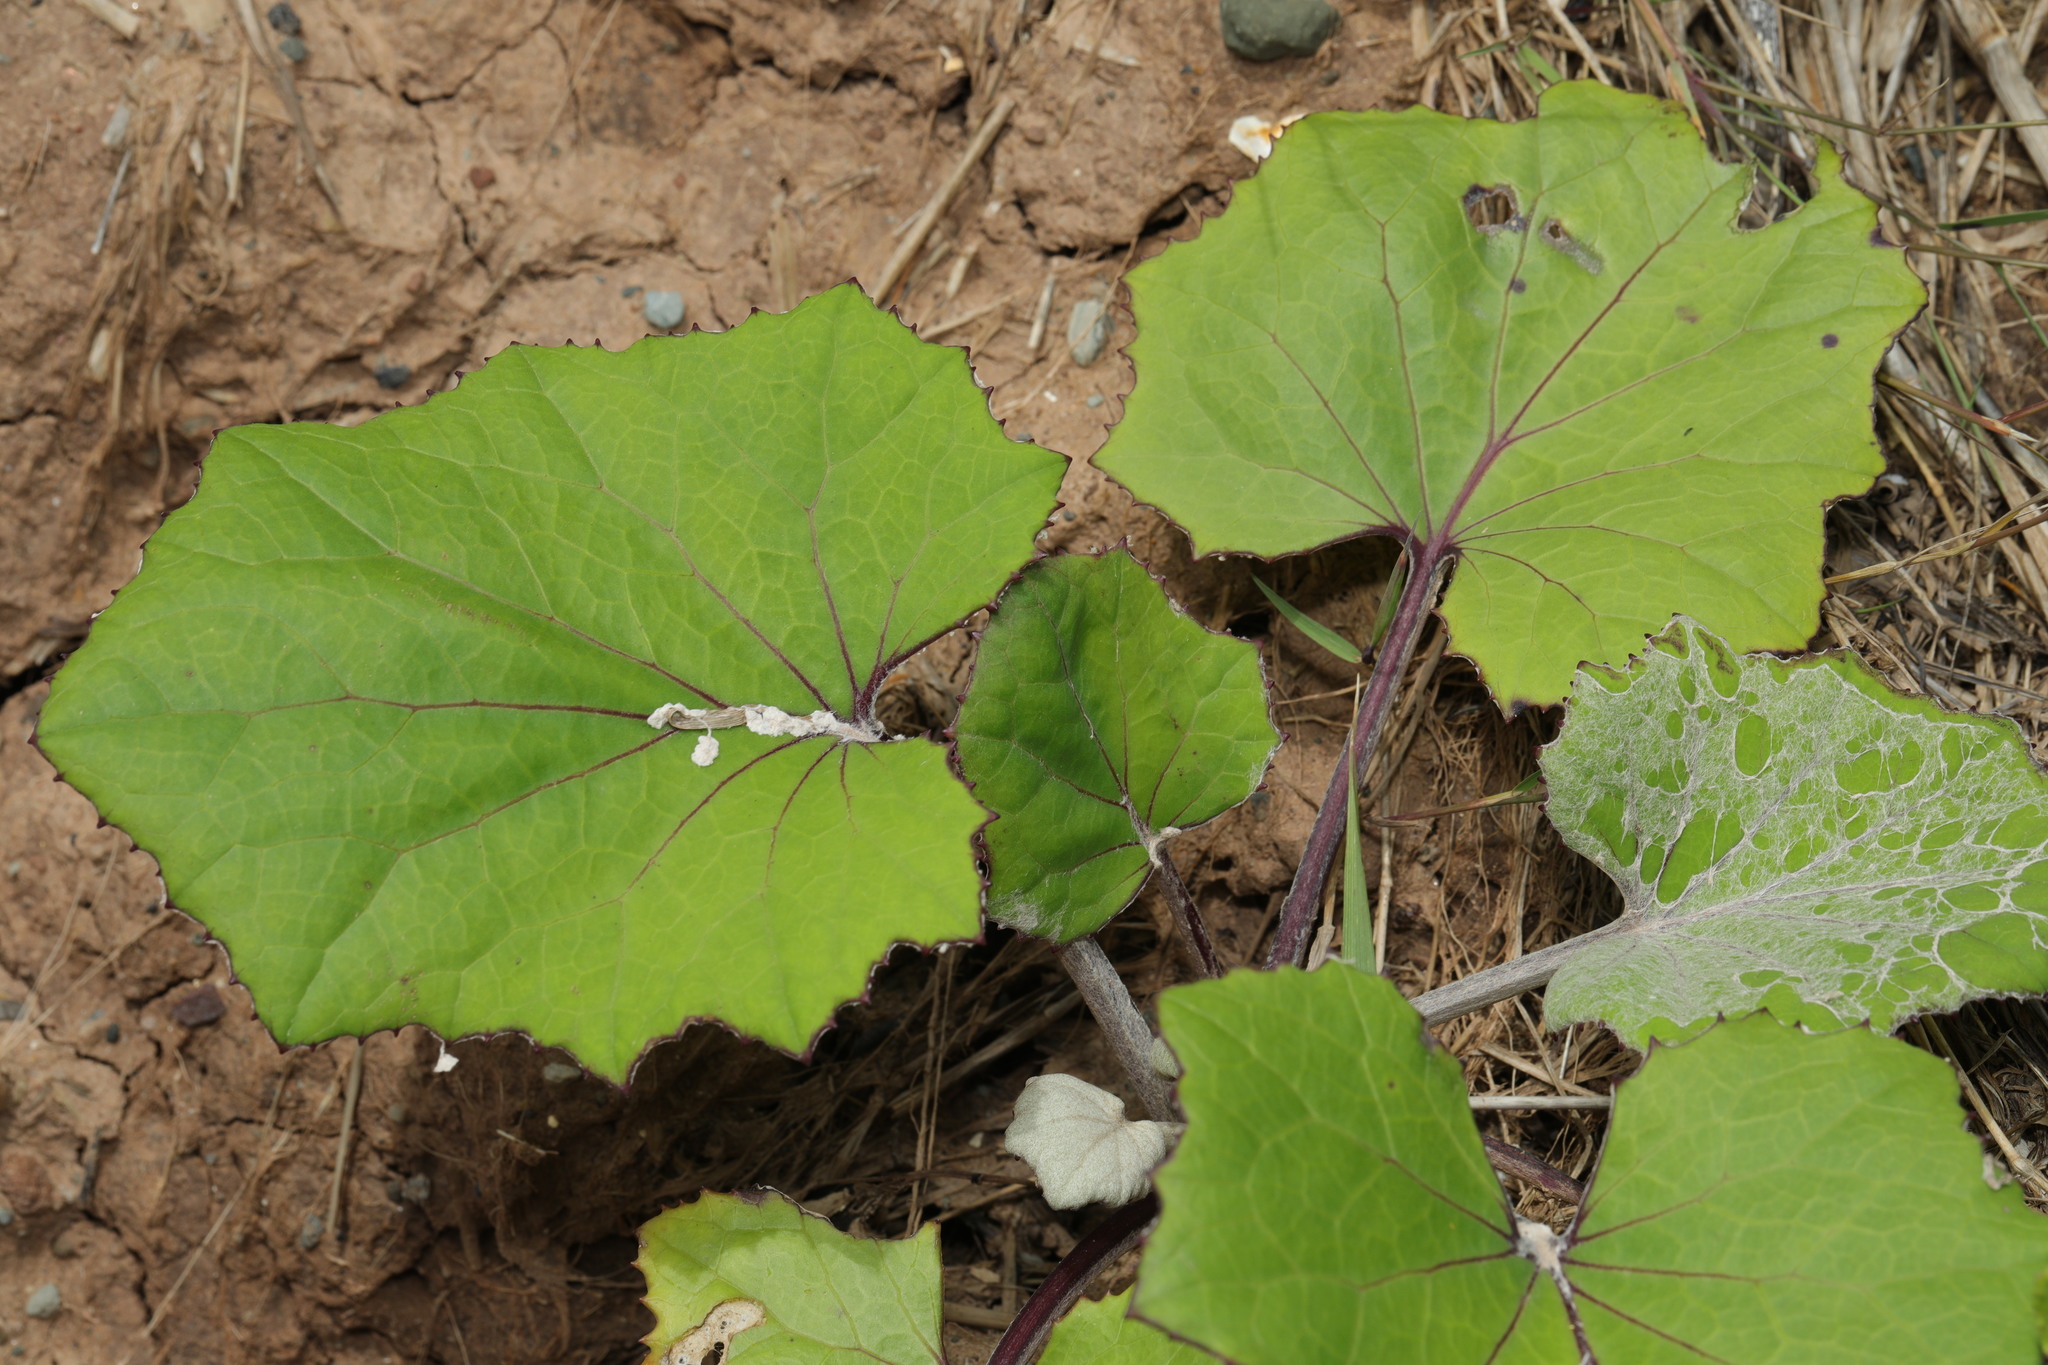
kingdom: Plantae
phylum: Tracheophyta
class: Magnoliopsida
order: Asterales
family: Asteraceae
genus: Tussilago
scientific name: Tussilago farfara
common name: Coltsfoot
